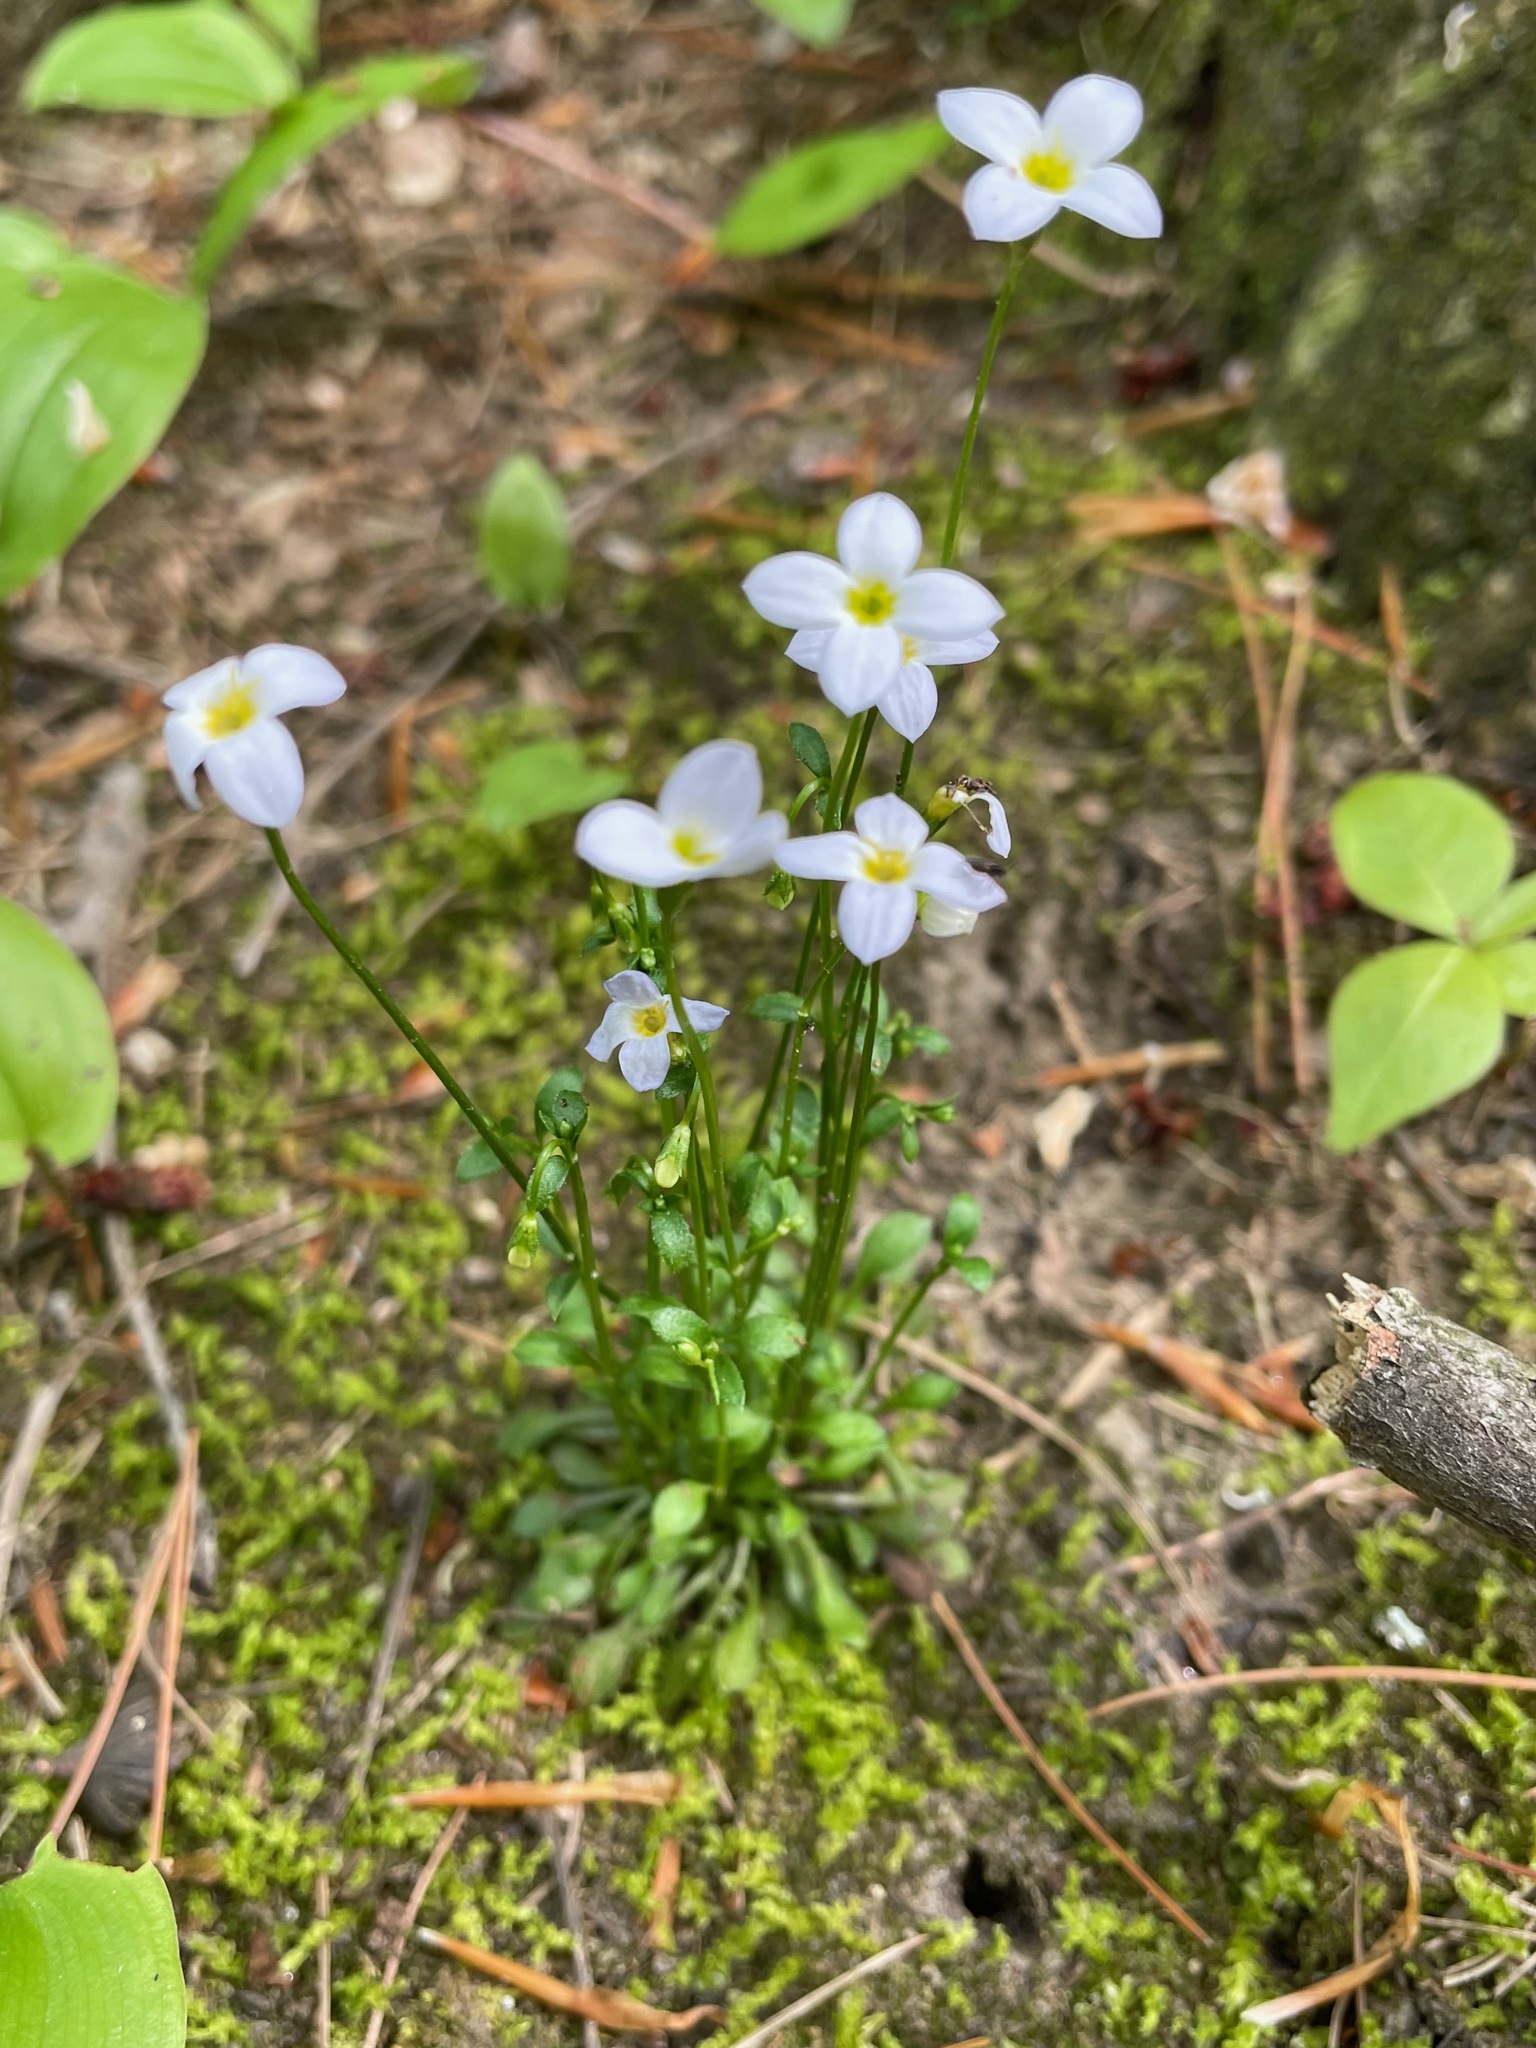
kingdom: Plantae
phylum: Tracheophyta
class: Magnoliopsida
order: Gentianales
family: Rubiaceae
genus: Houstonia
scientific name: Houstonia caerulea
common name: Bluets
